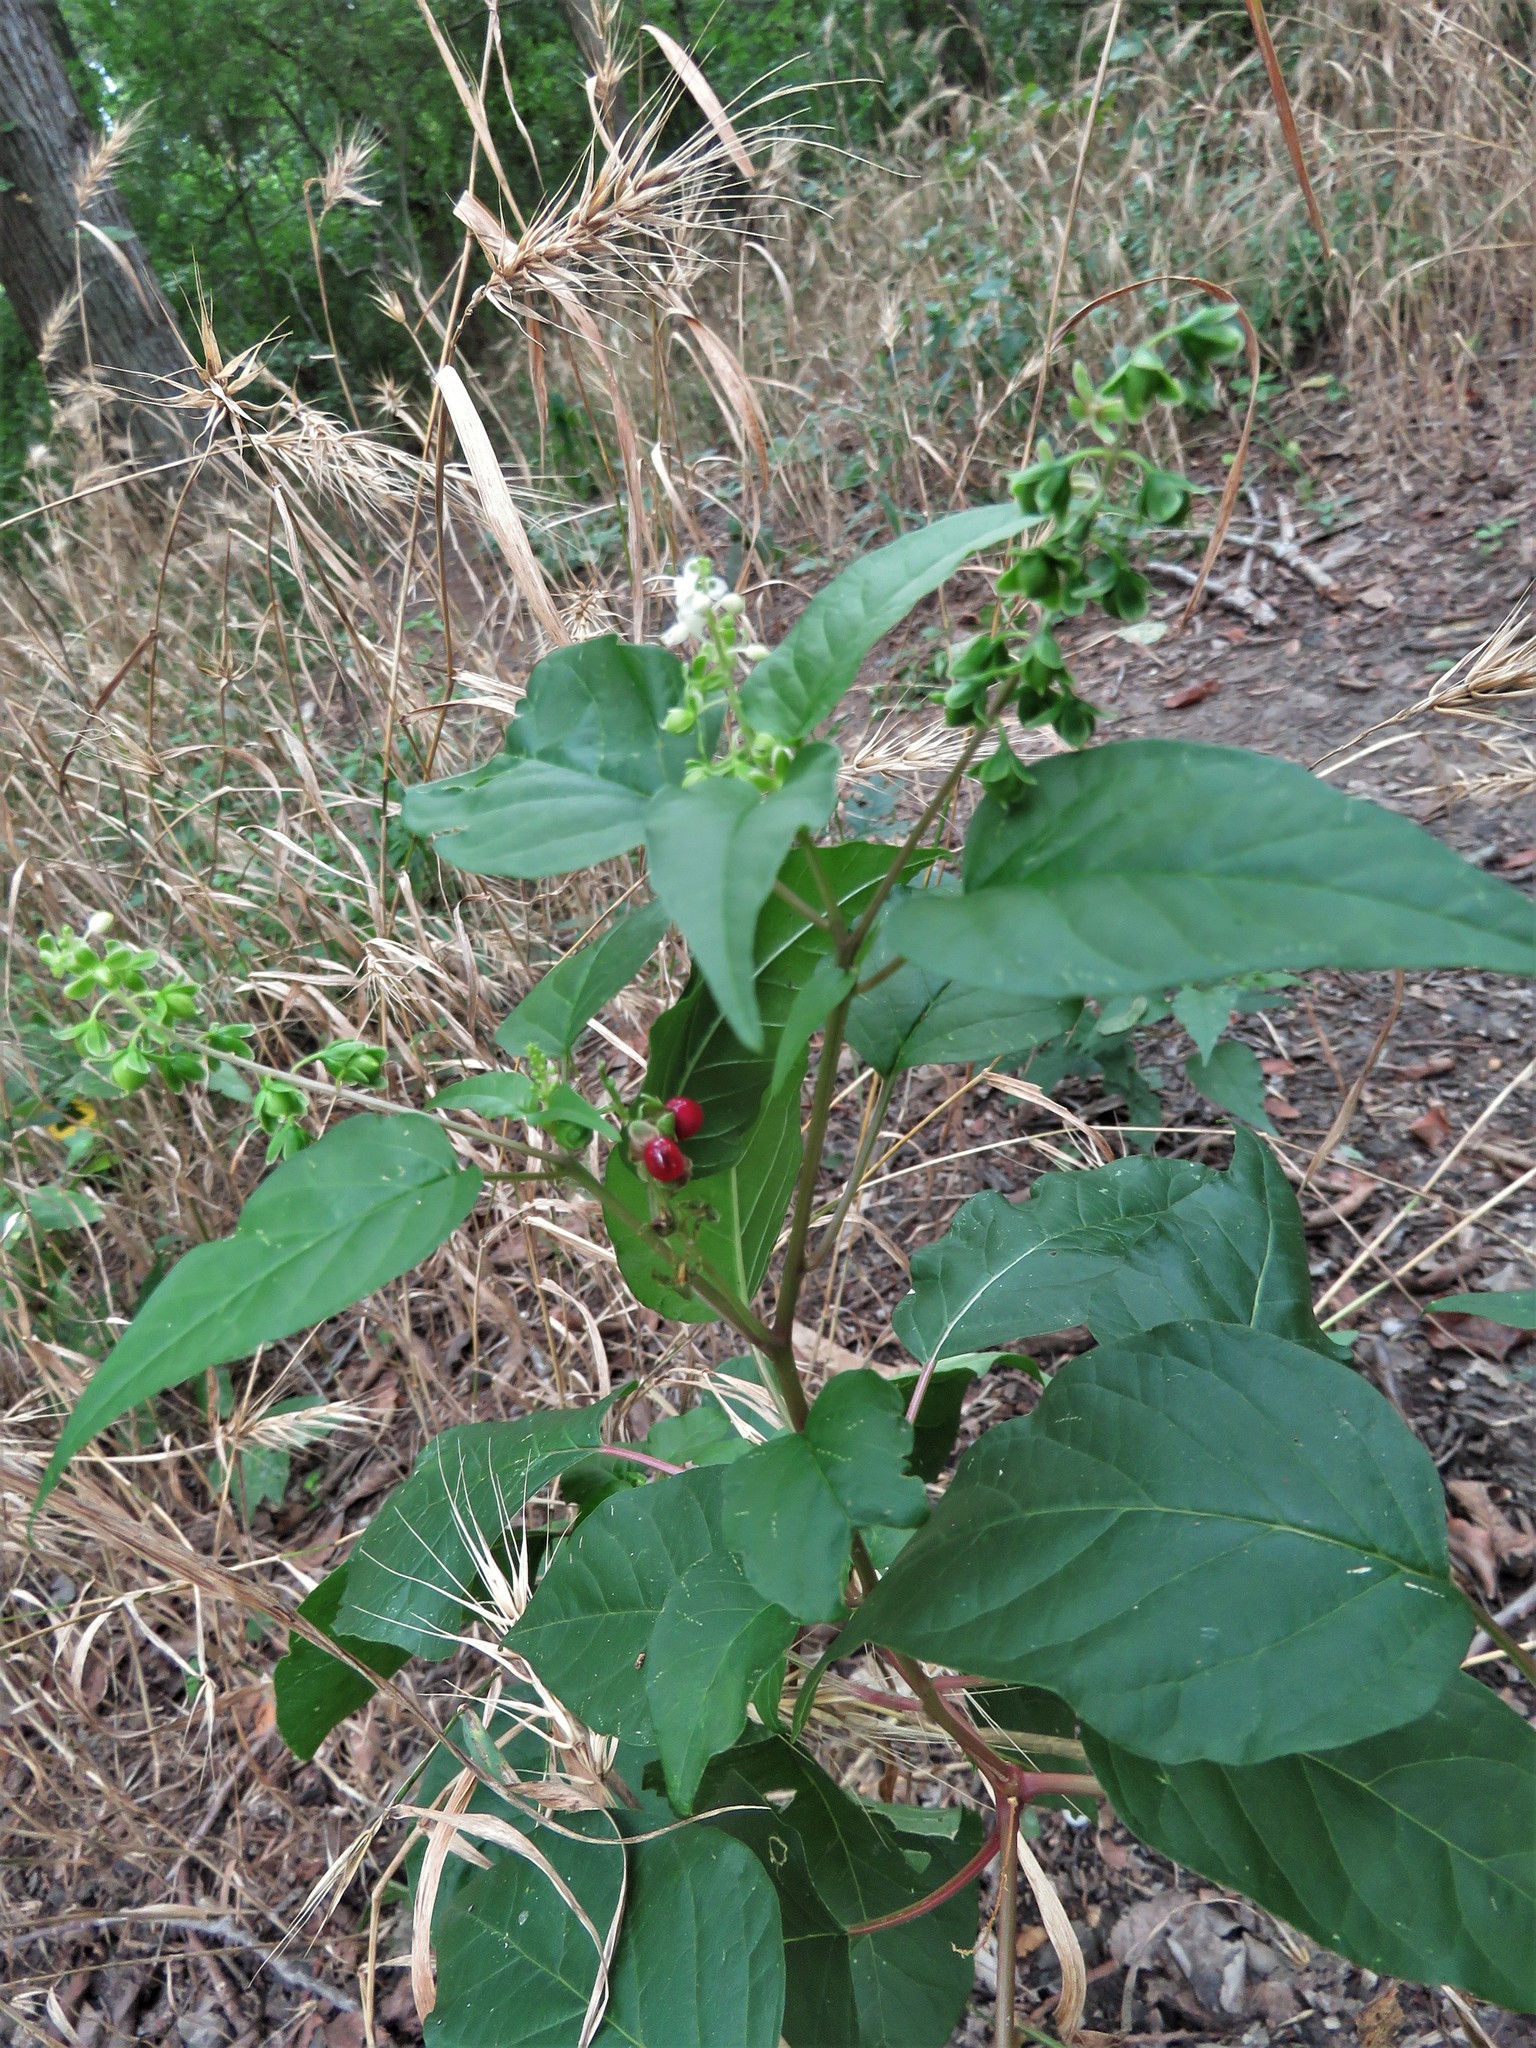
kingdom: Plantae
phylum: Tracheophyta
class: Magnoliopsida
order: Caryophyllales
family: Phytolaccaceae
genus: Rivina
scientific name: Rivina humilis
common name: Rougeplant
